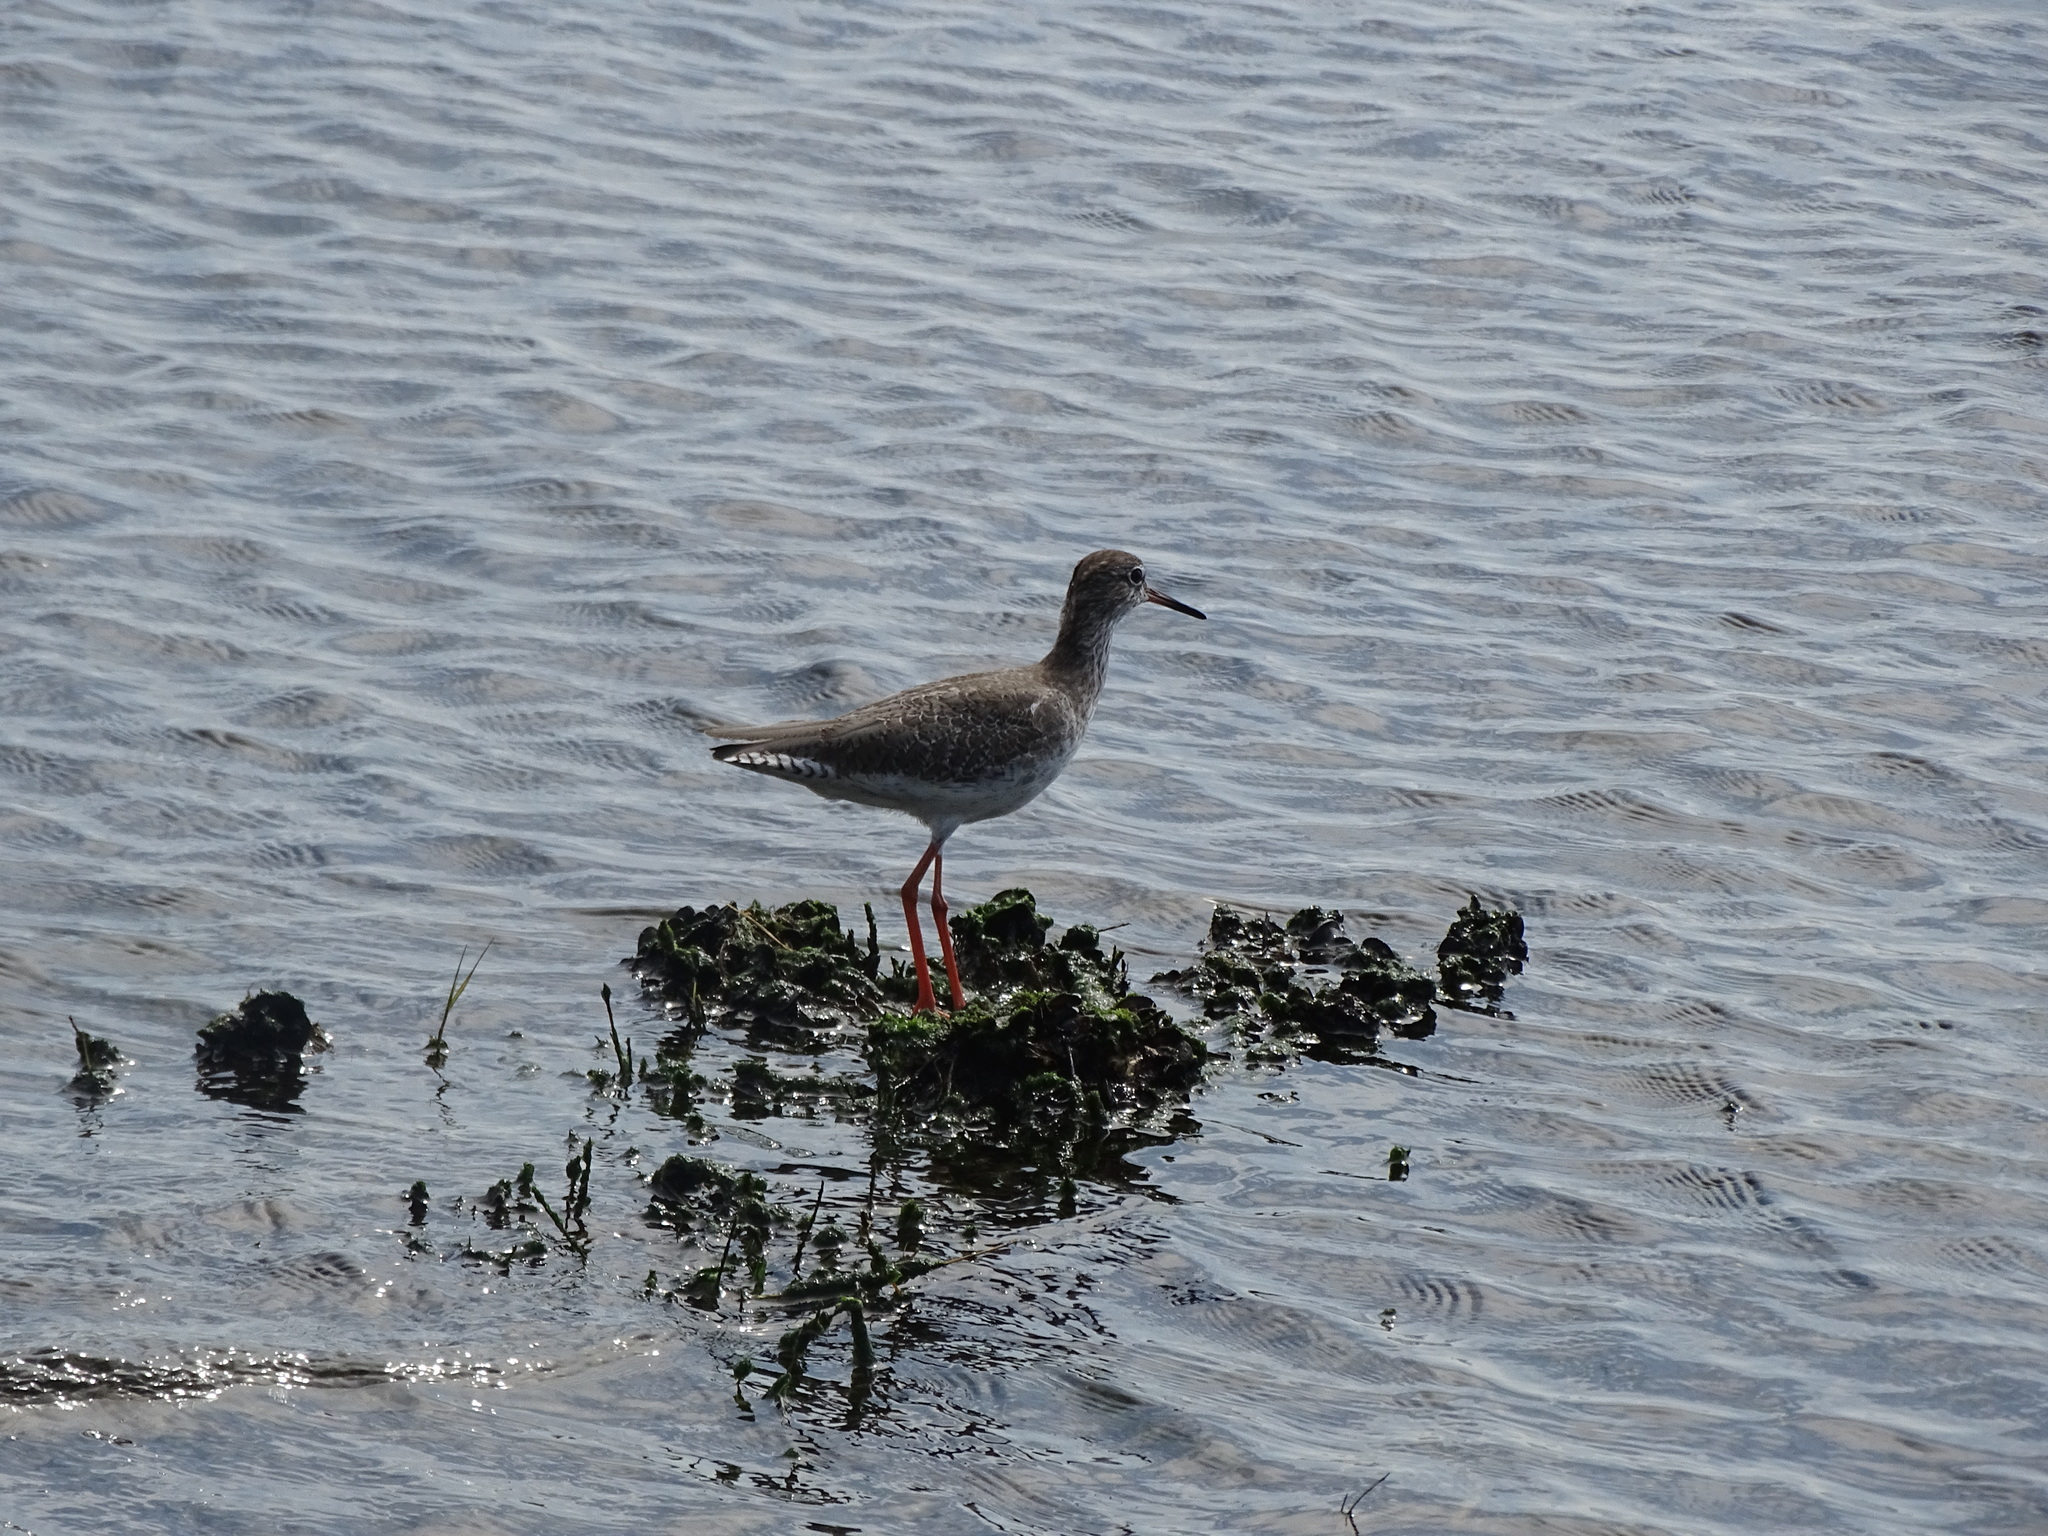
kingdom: Animalia
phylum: Chordata
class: Aves
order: Charadriiformes
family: Scolopacidae
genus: Tringa
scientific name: Tringa totanus
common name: Common redshank
